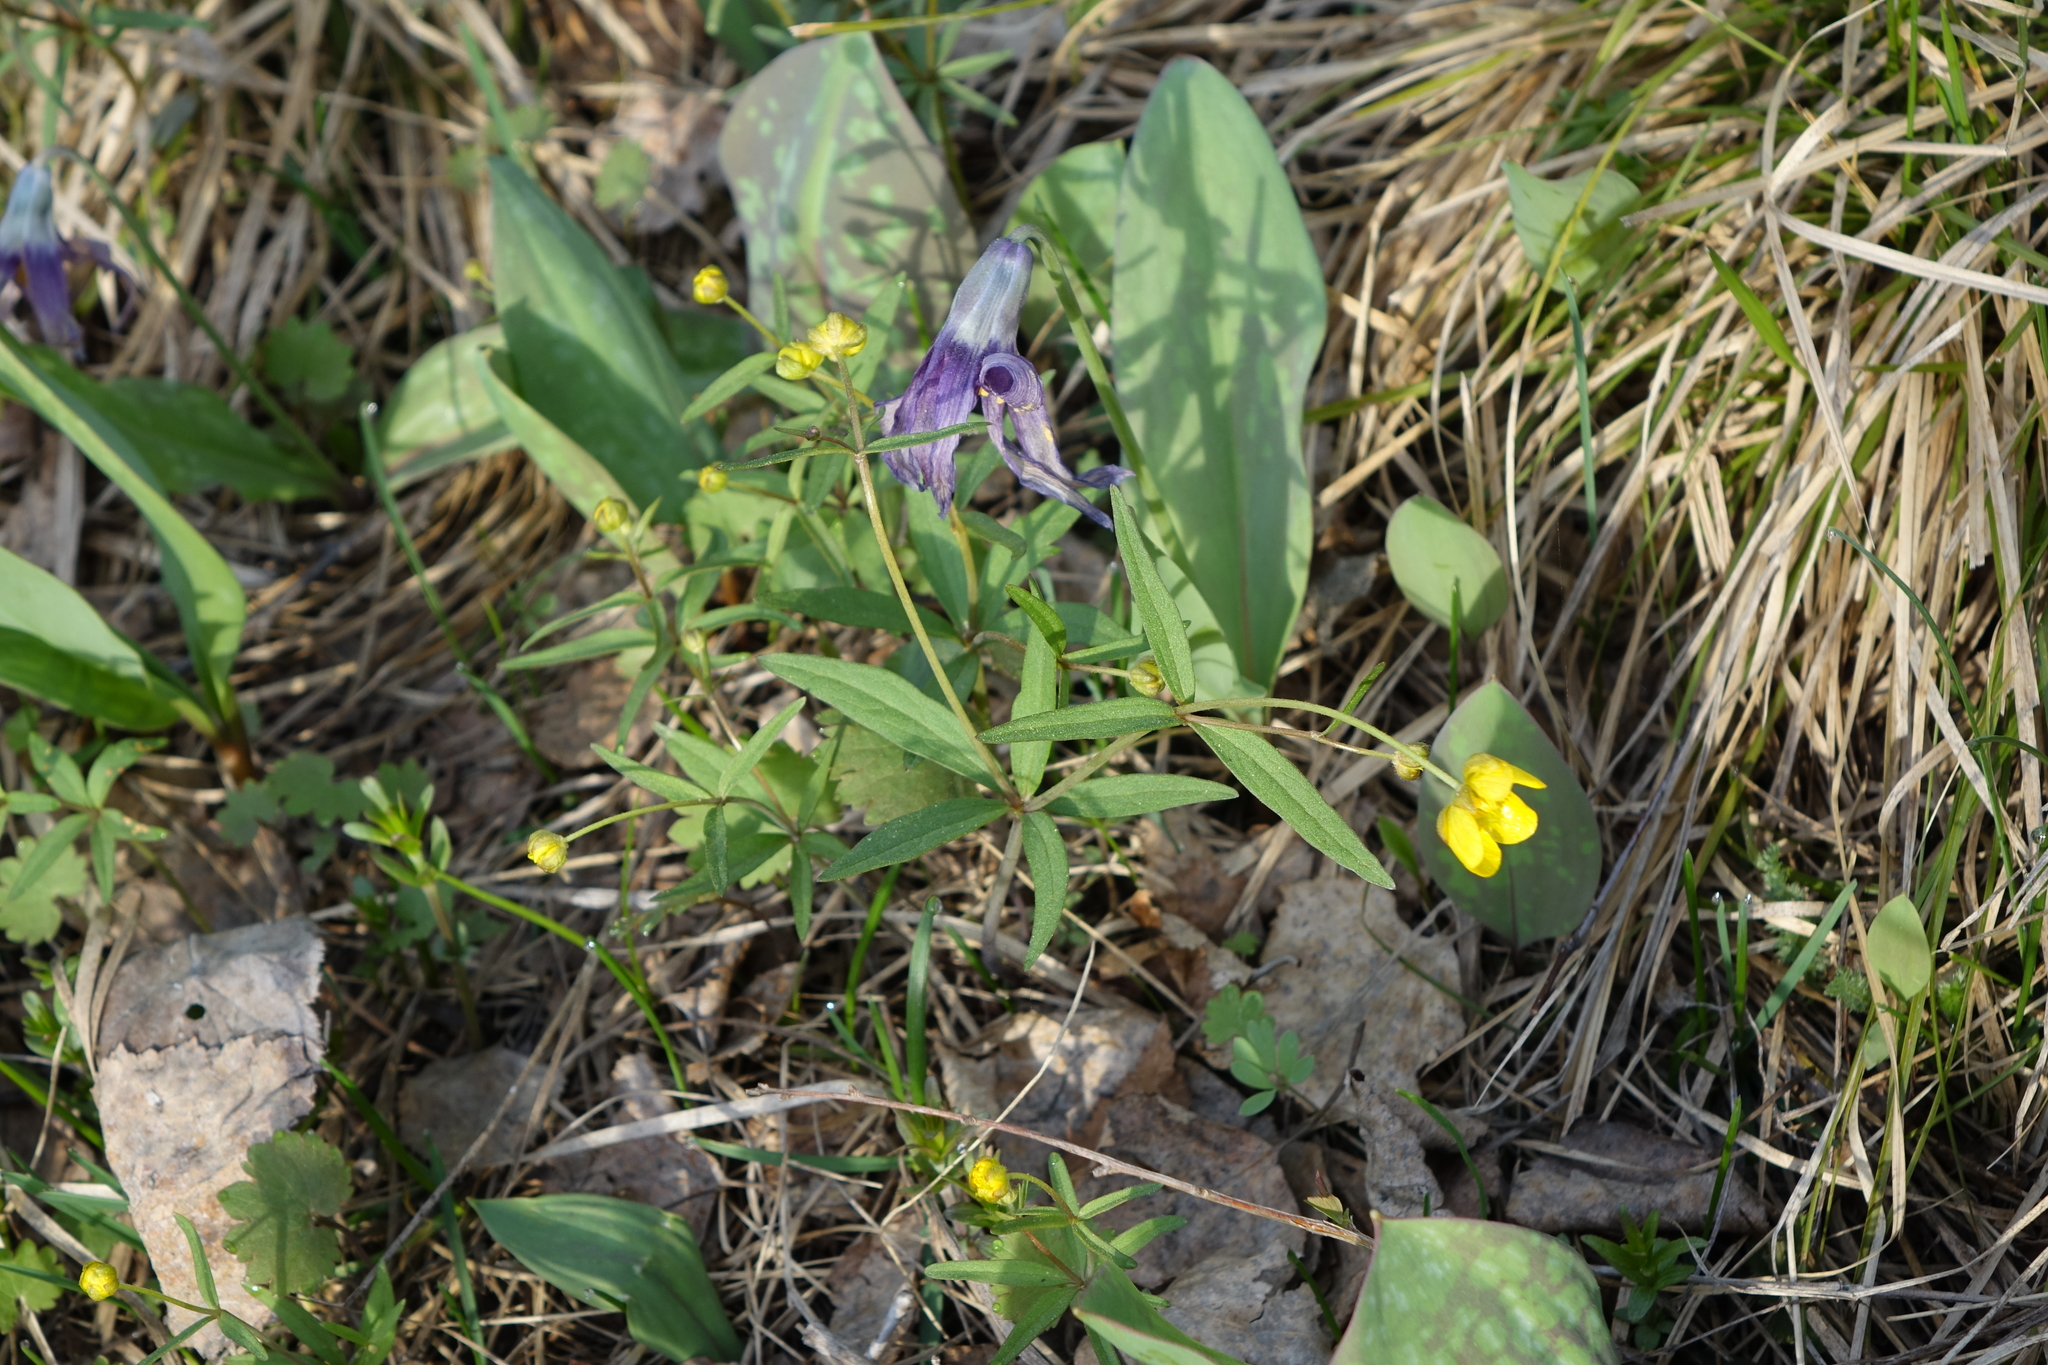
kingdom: Plantae
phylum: Tracheophyta
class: Magnoliopsida
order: Ranunculales
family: Ranunculaceae
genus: Ranunculus
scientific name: Ranunculus monophyllus
